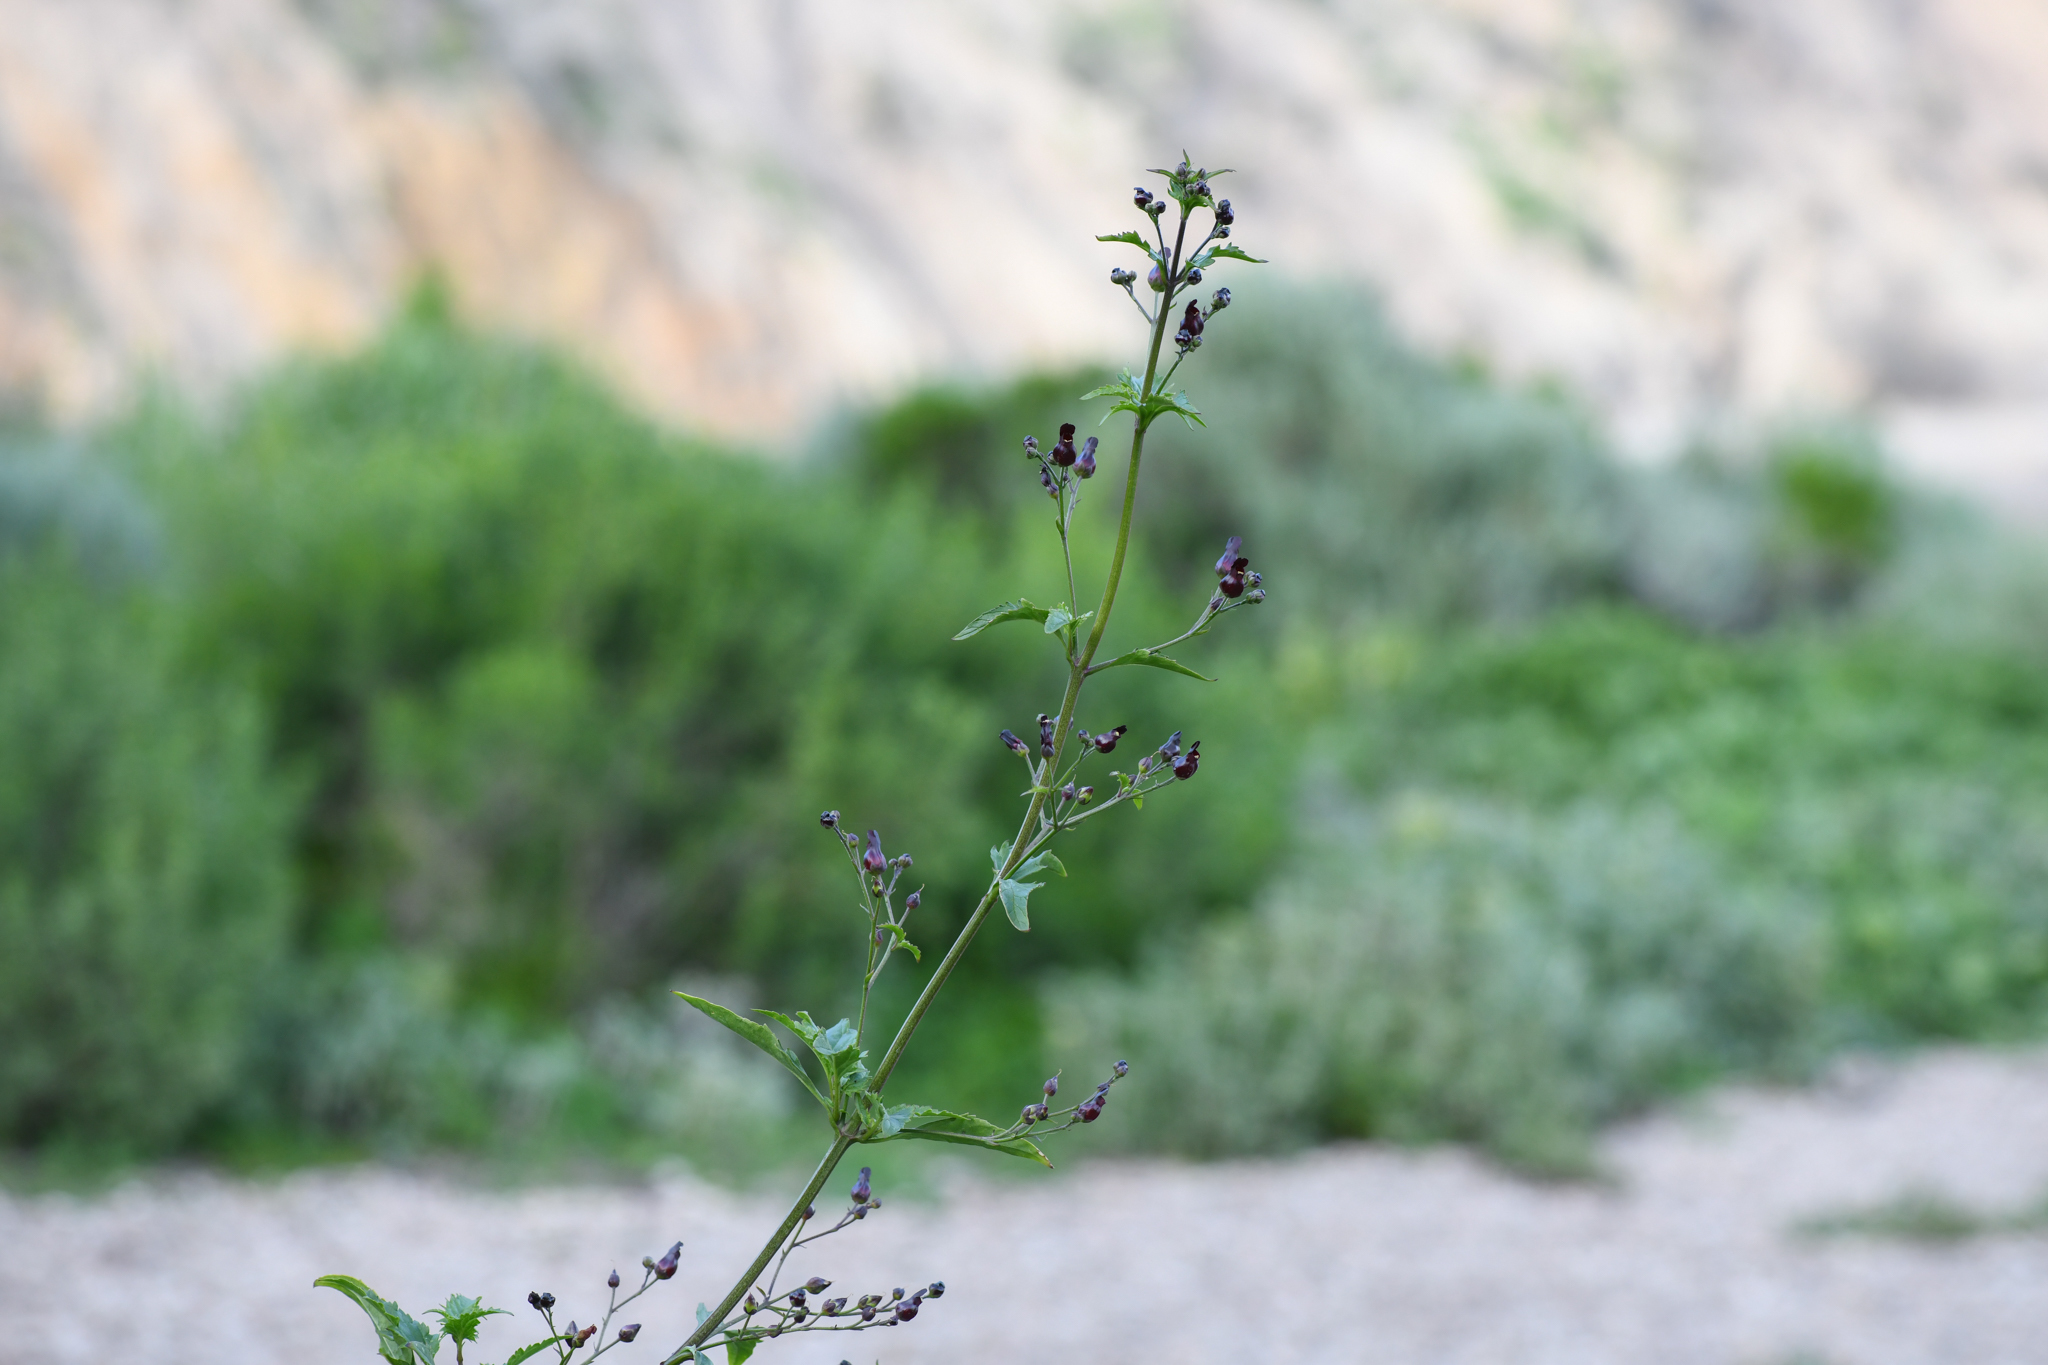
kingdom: Plantae
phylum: Tracheophyta
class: Magnoliopsida
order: Lamiales
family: Scrophulariaceae
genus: Scrophularia
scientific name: Scrophularia atrata
